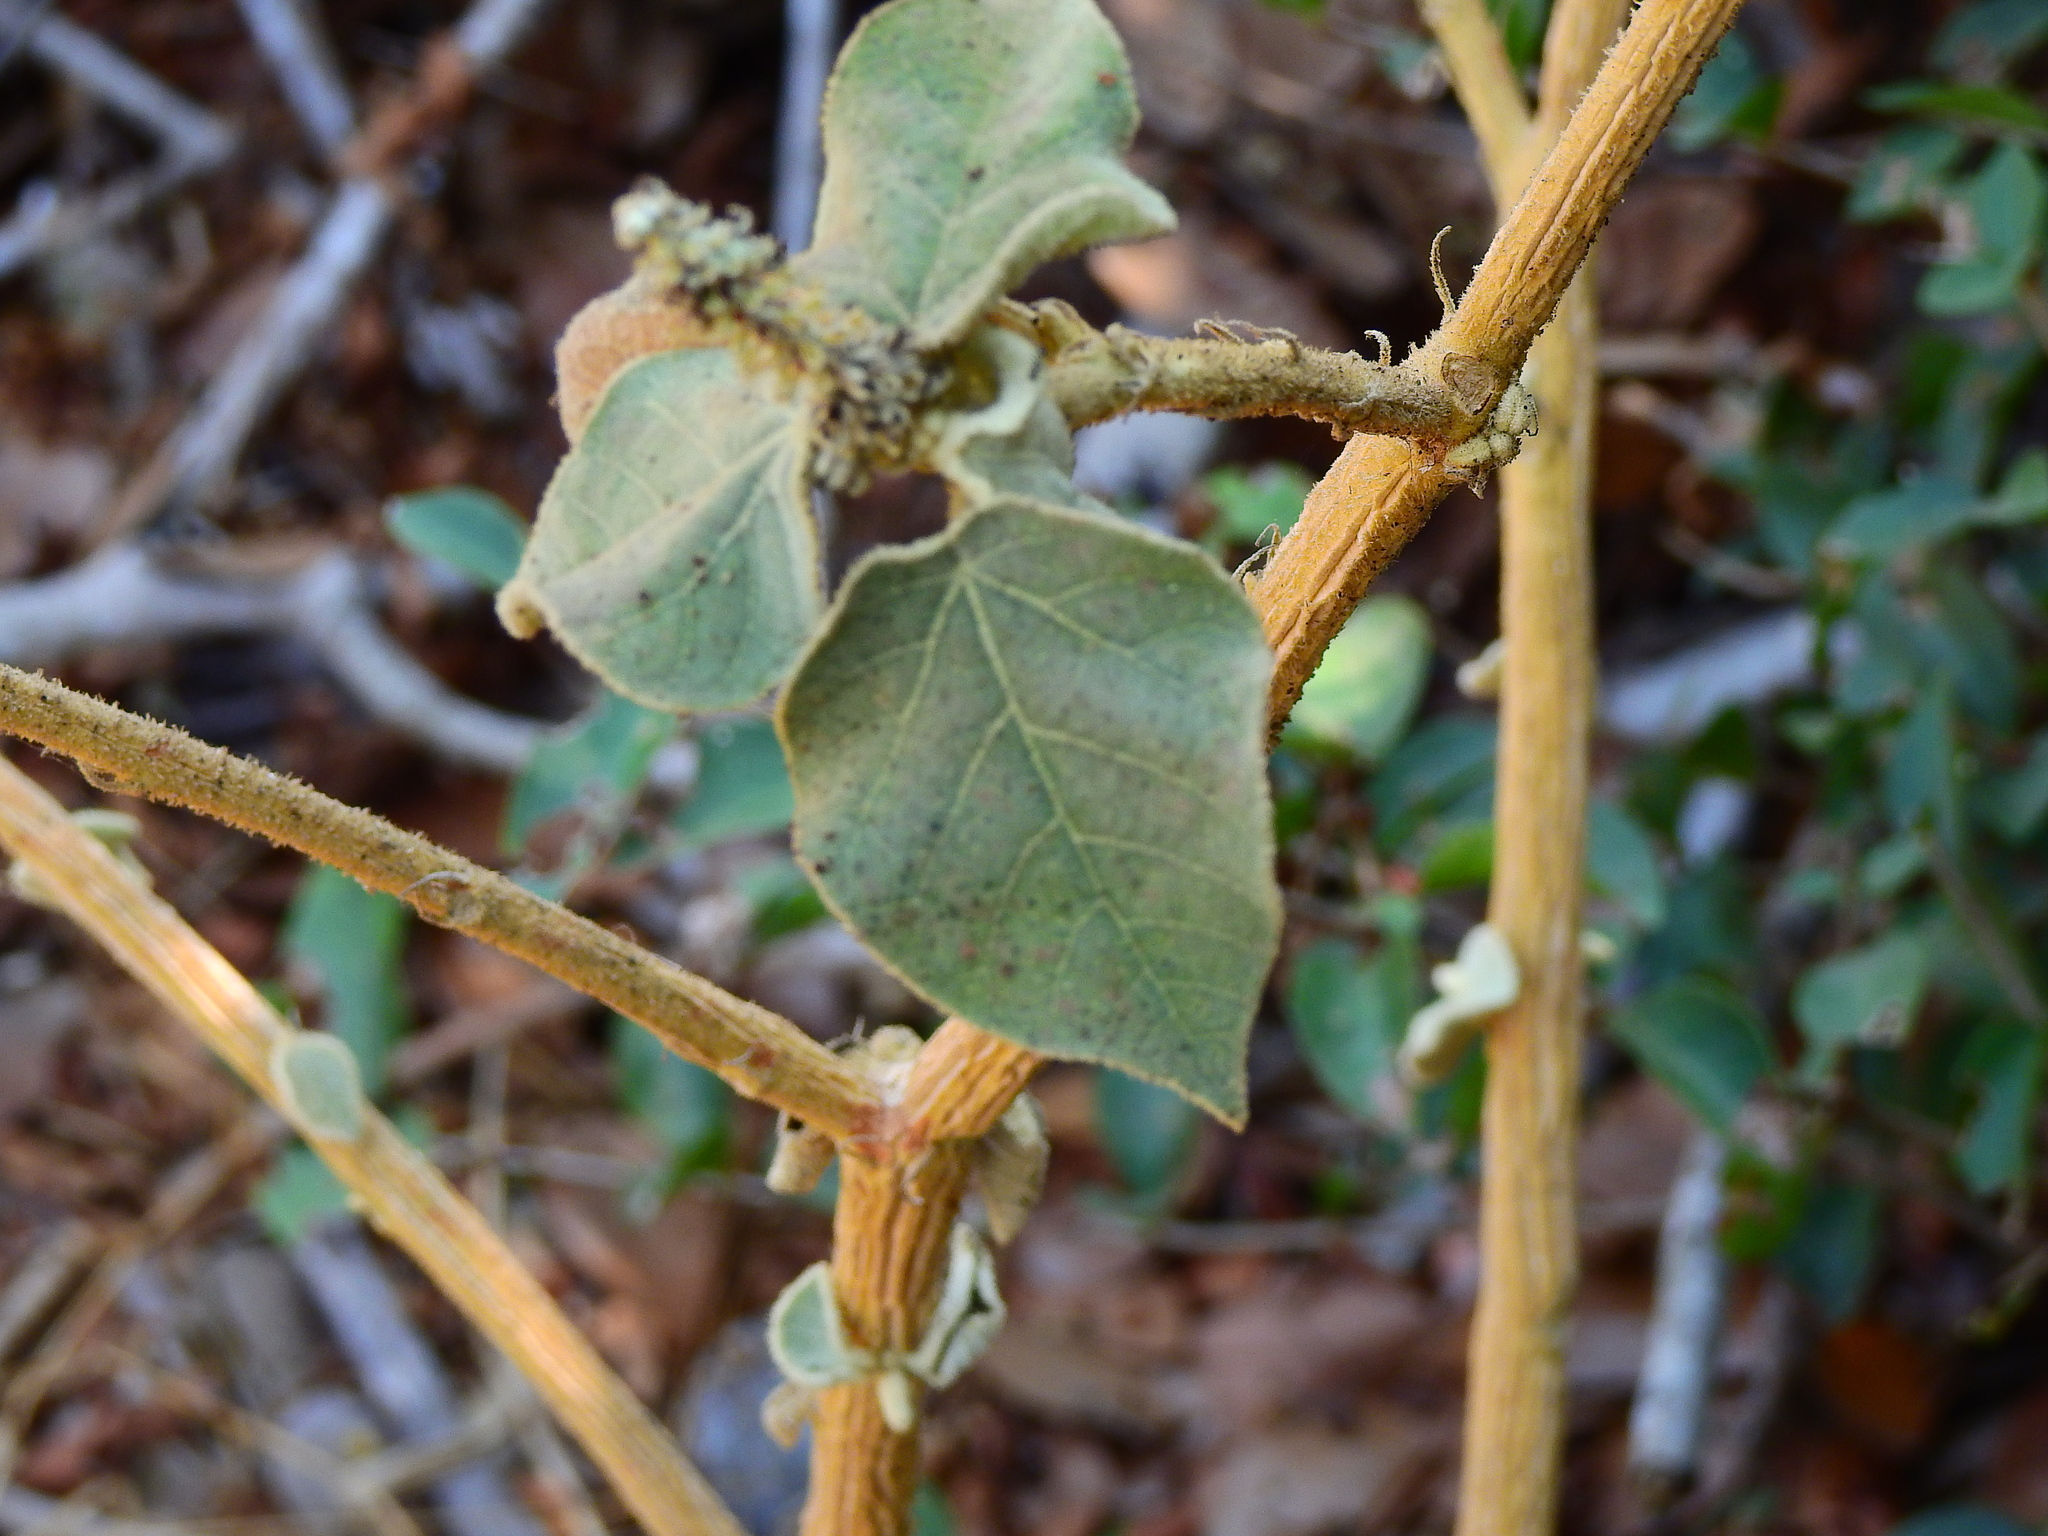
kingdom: Plantae
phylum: Tracheophyta
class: Magnoliopsida
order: Malpighiales
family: Euphorbiaceae
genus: Croton
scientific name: Croton suberosus
